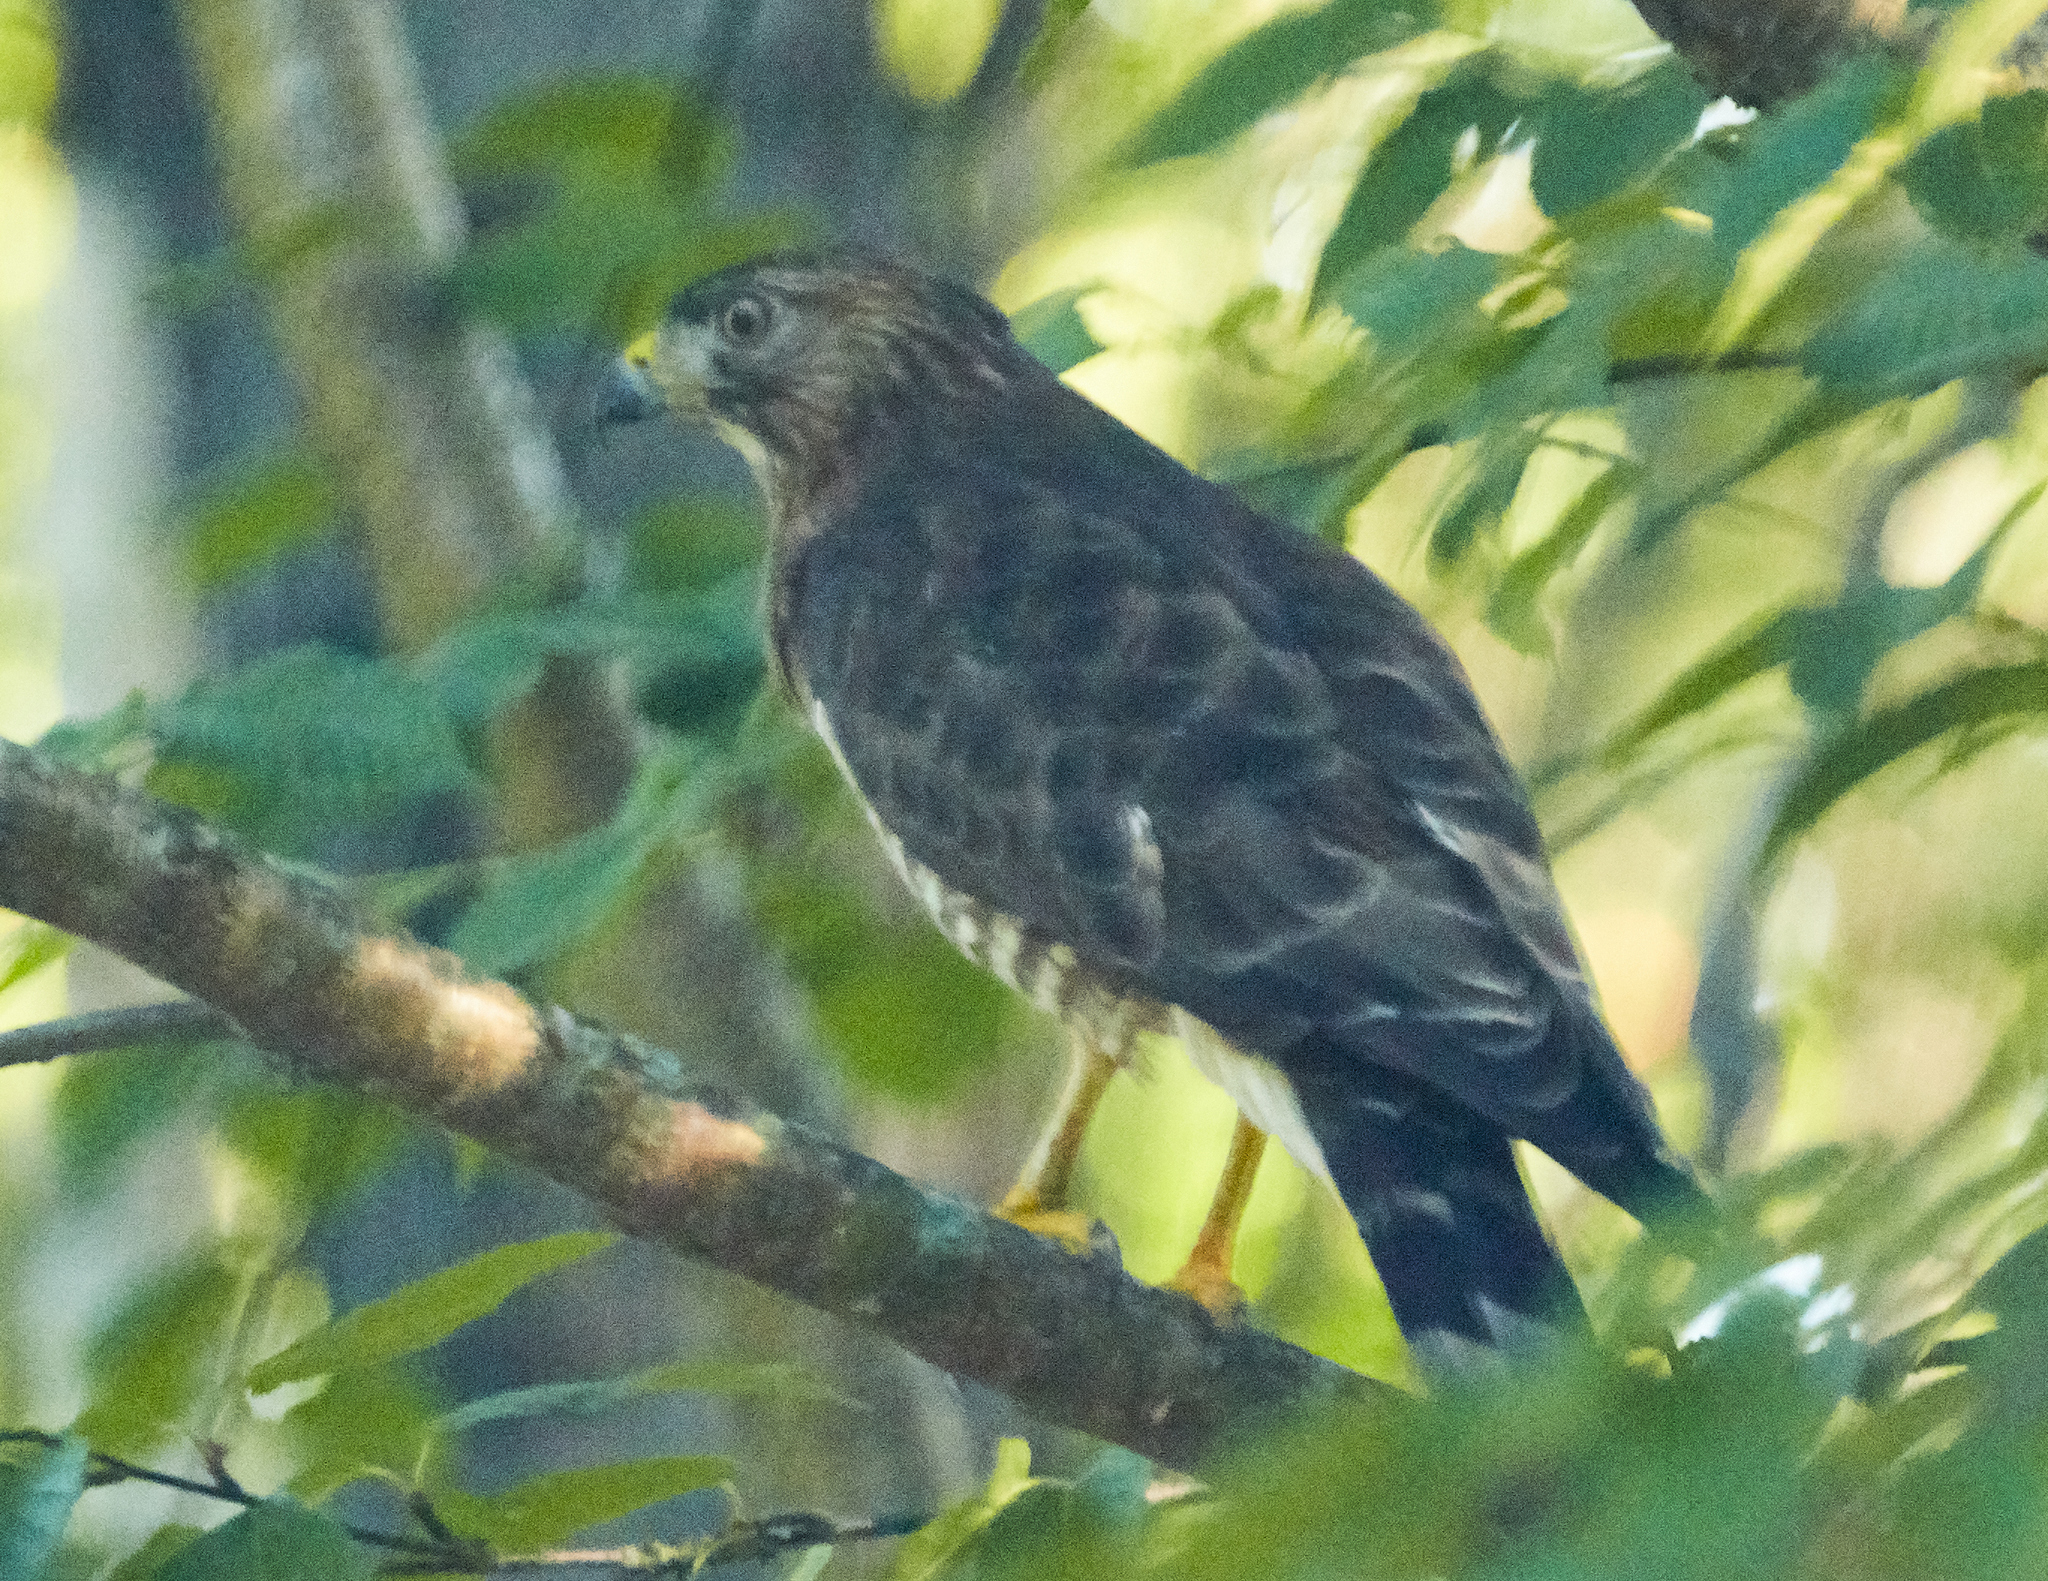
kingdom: Animalia
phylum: Chordata
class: Aves
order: Accipitriformes
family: Accipitridae
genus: Buteo
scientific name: Buteo platypterus
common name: Broad-winged hawk
